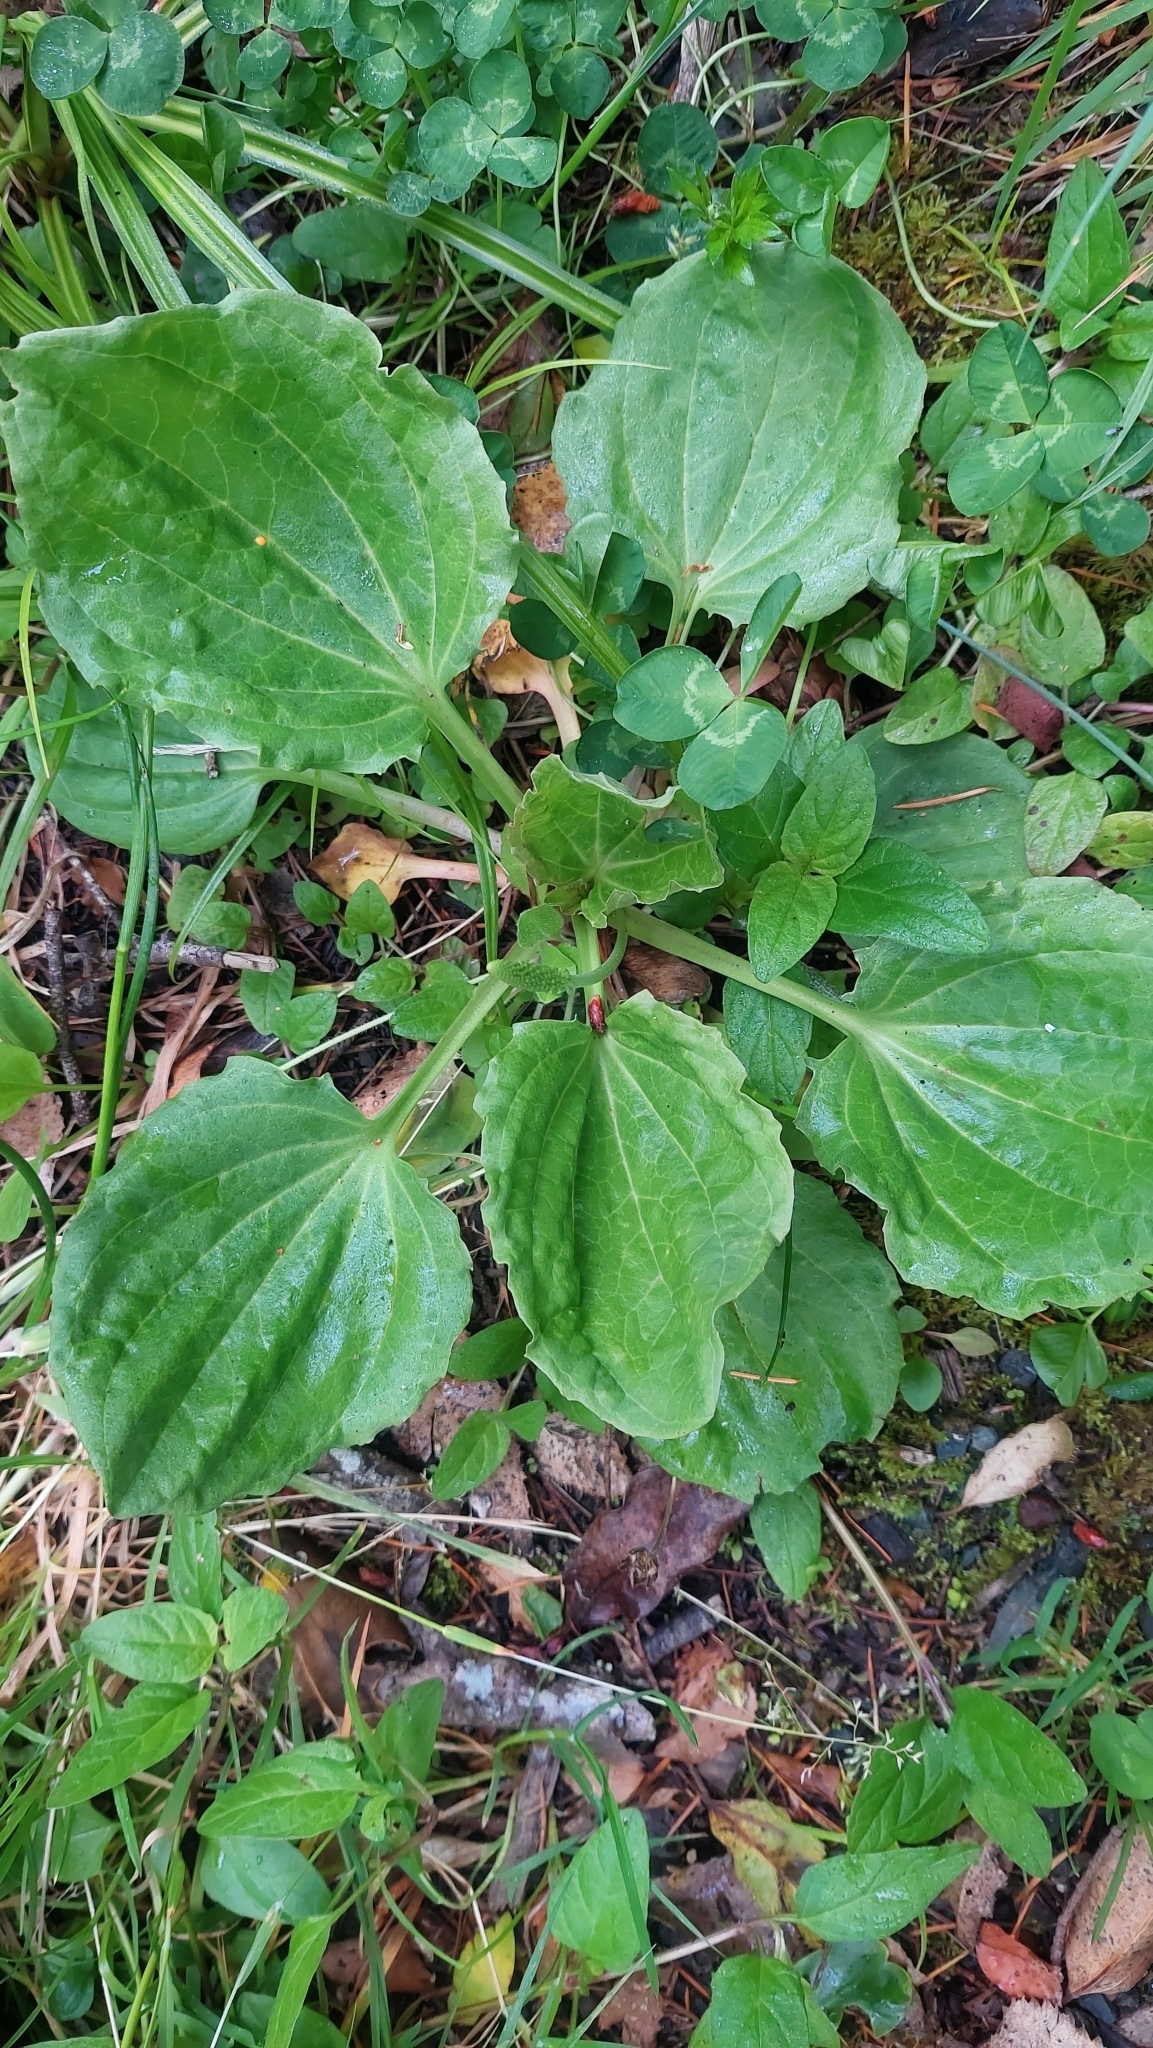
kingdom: Plantae
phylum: Tracheophyta
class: Magnoliopsida
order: Lamiales
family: Plantaginaceae
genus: Plantago
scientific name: Plantago major
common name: Common plantain
